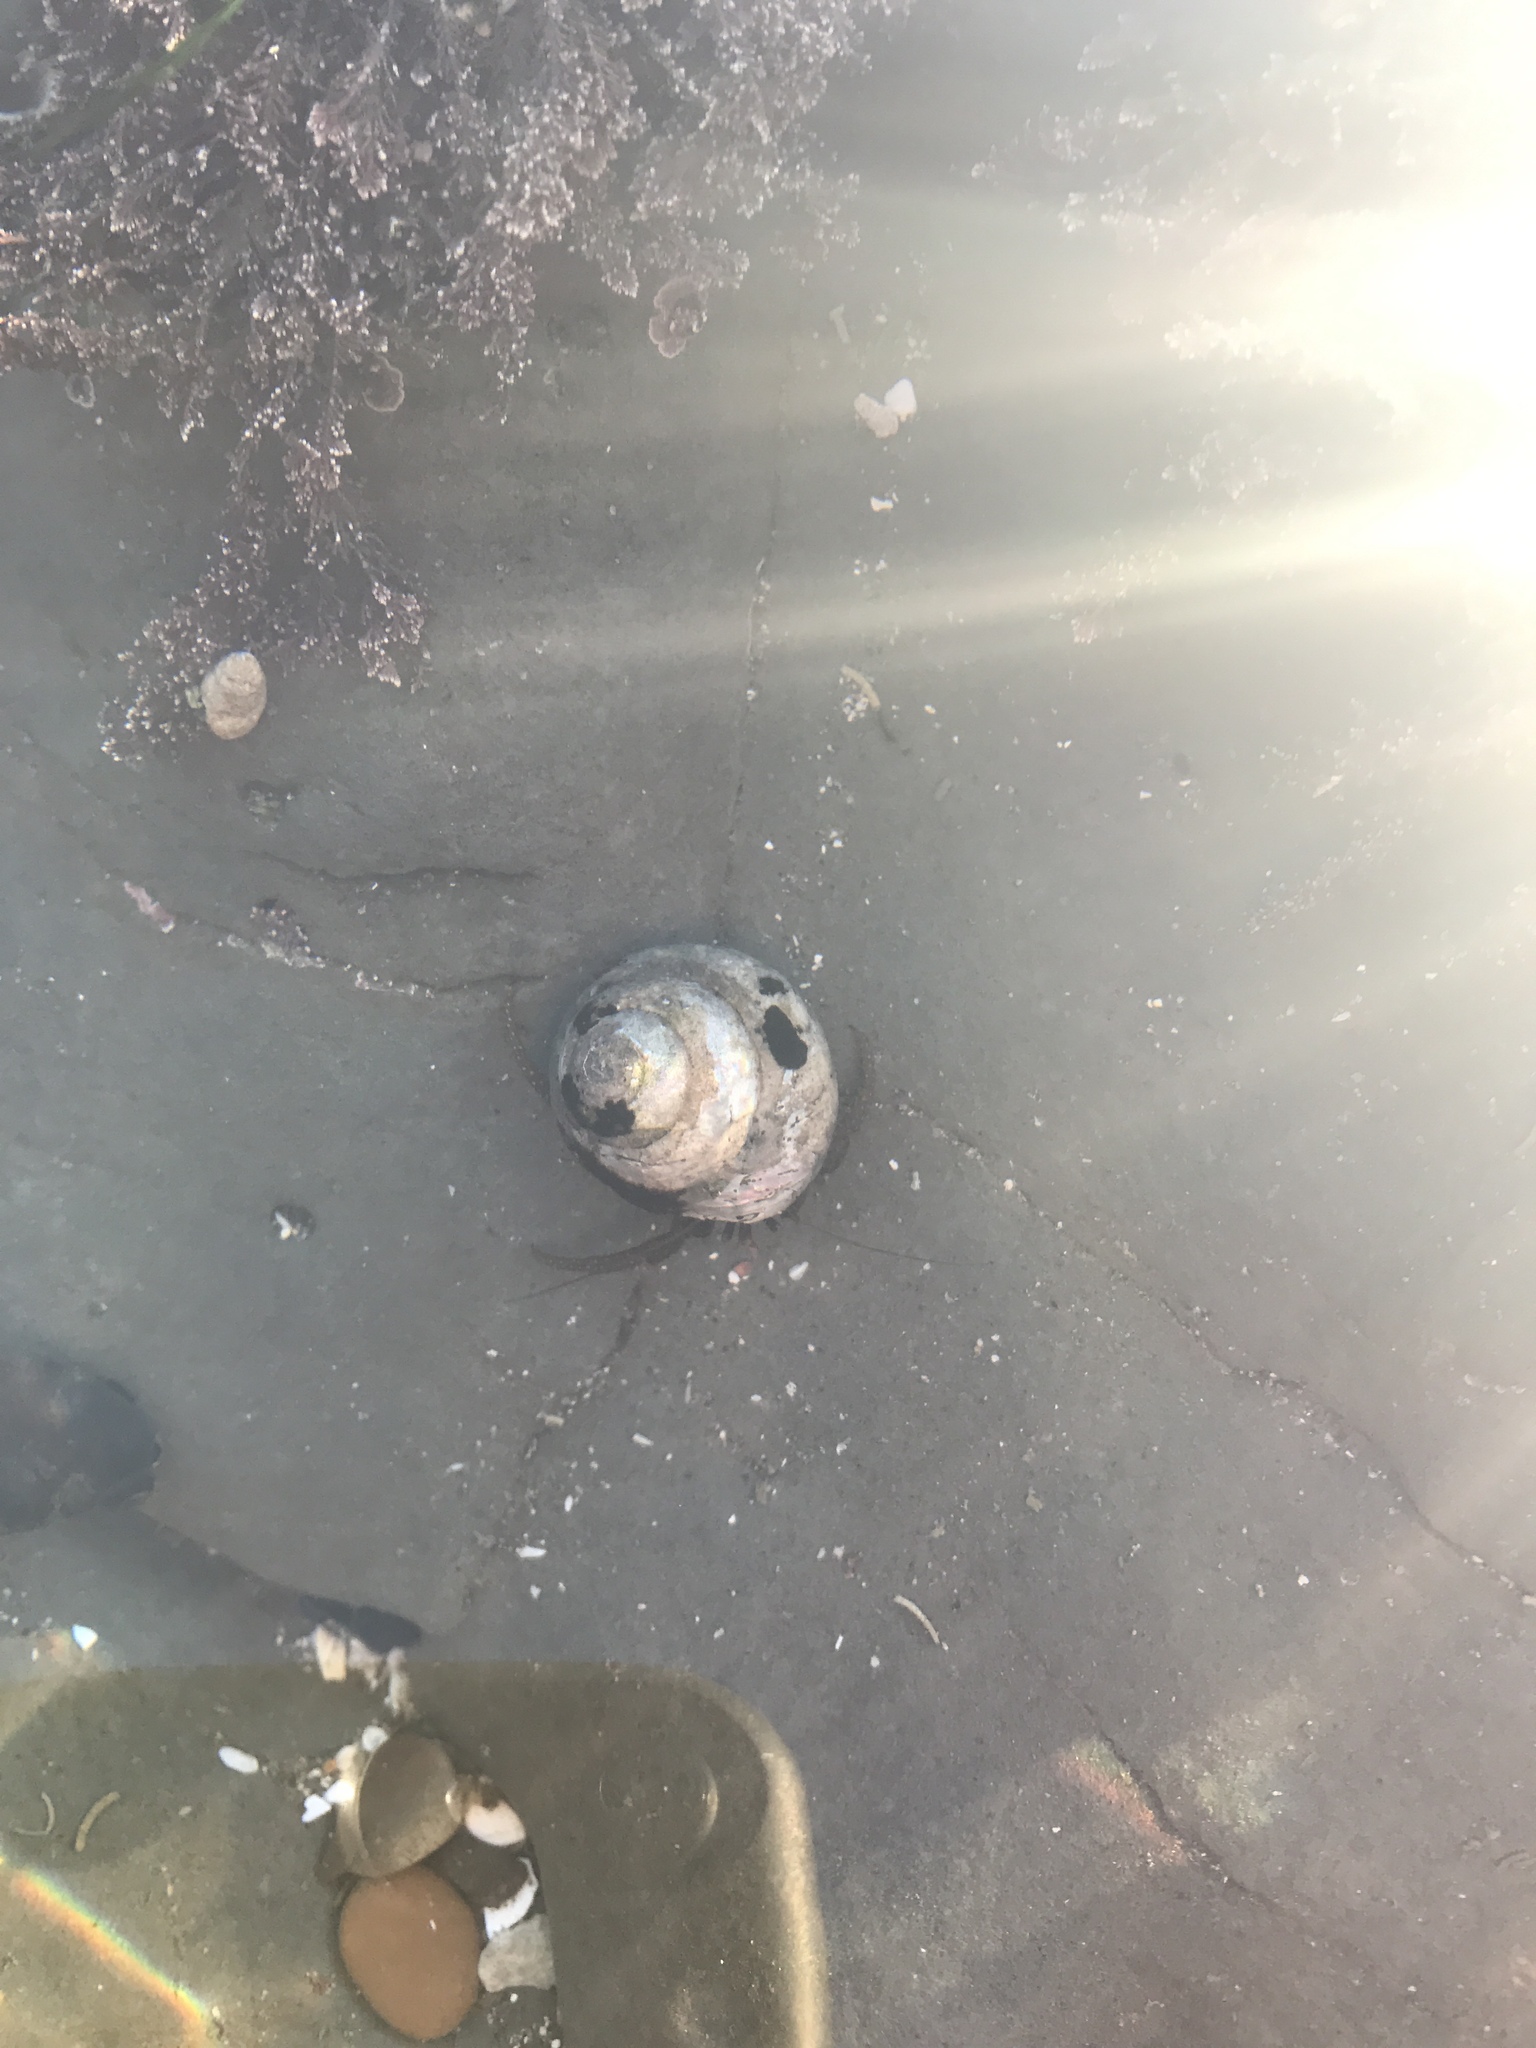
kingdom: Animalia
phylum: Arthropoda
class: Malacostraca
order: Decapoda
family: Paguridae
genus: Pagurus
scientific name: Pagurus granosimanus
